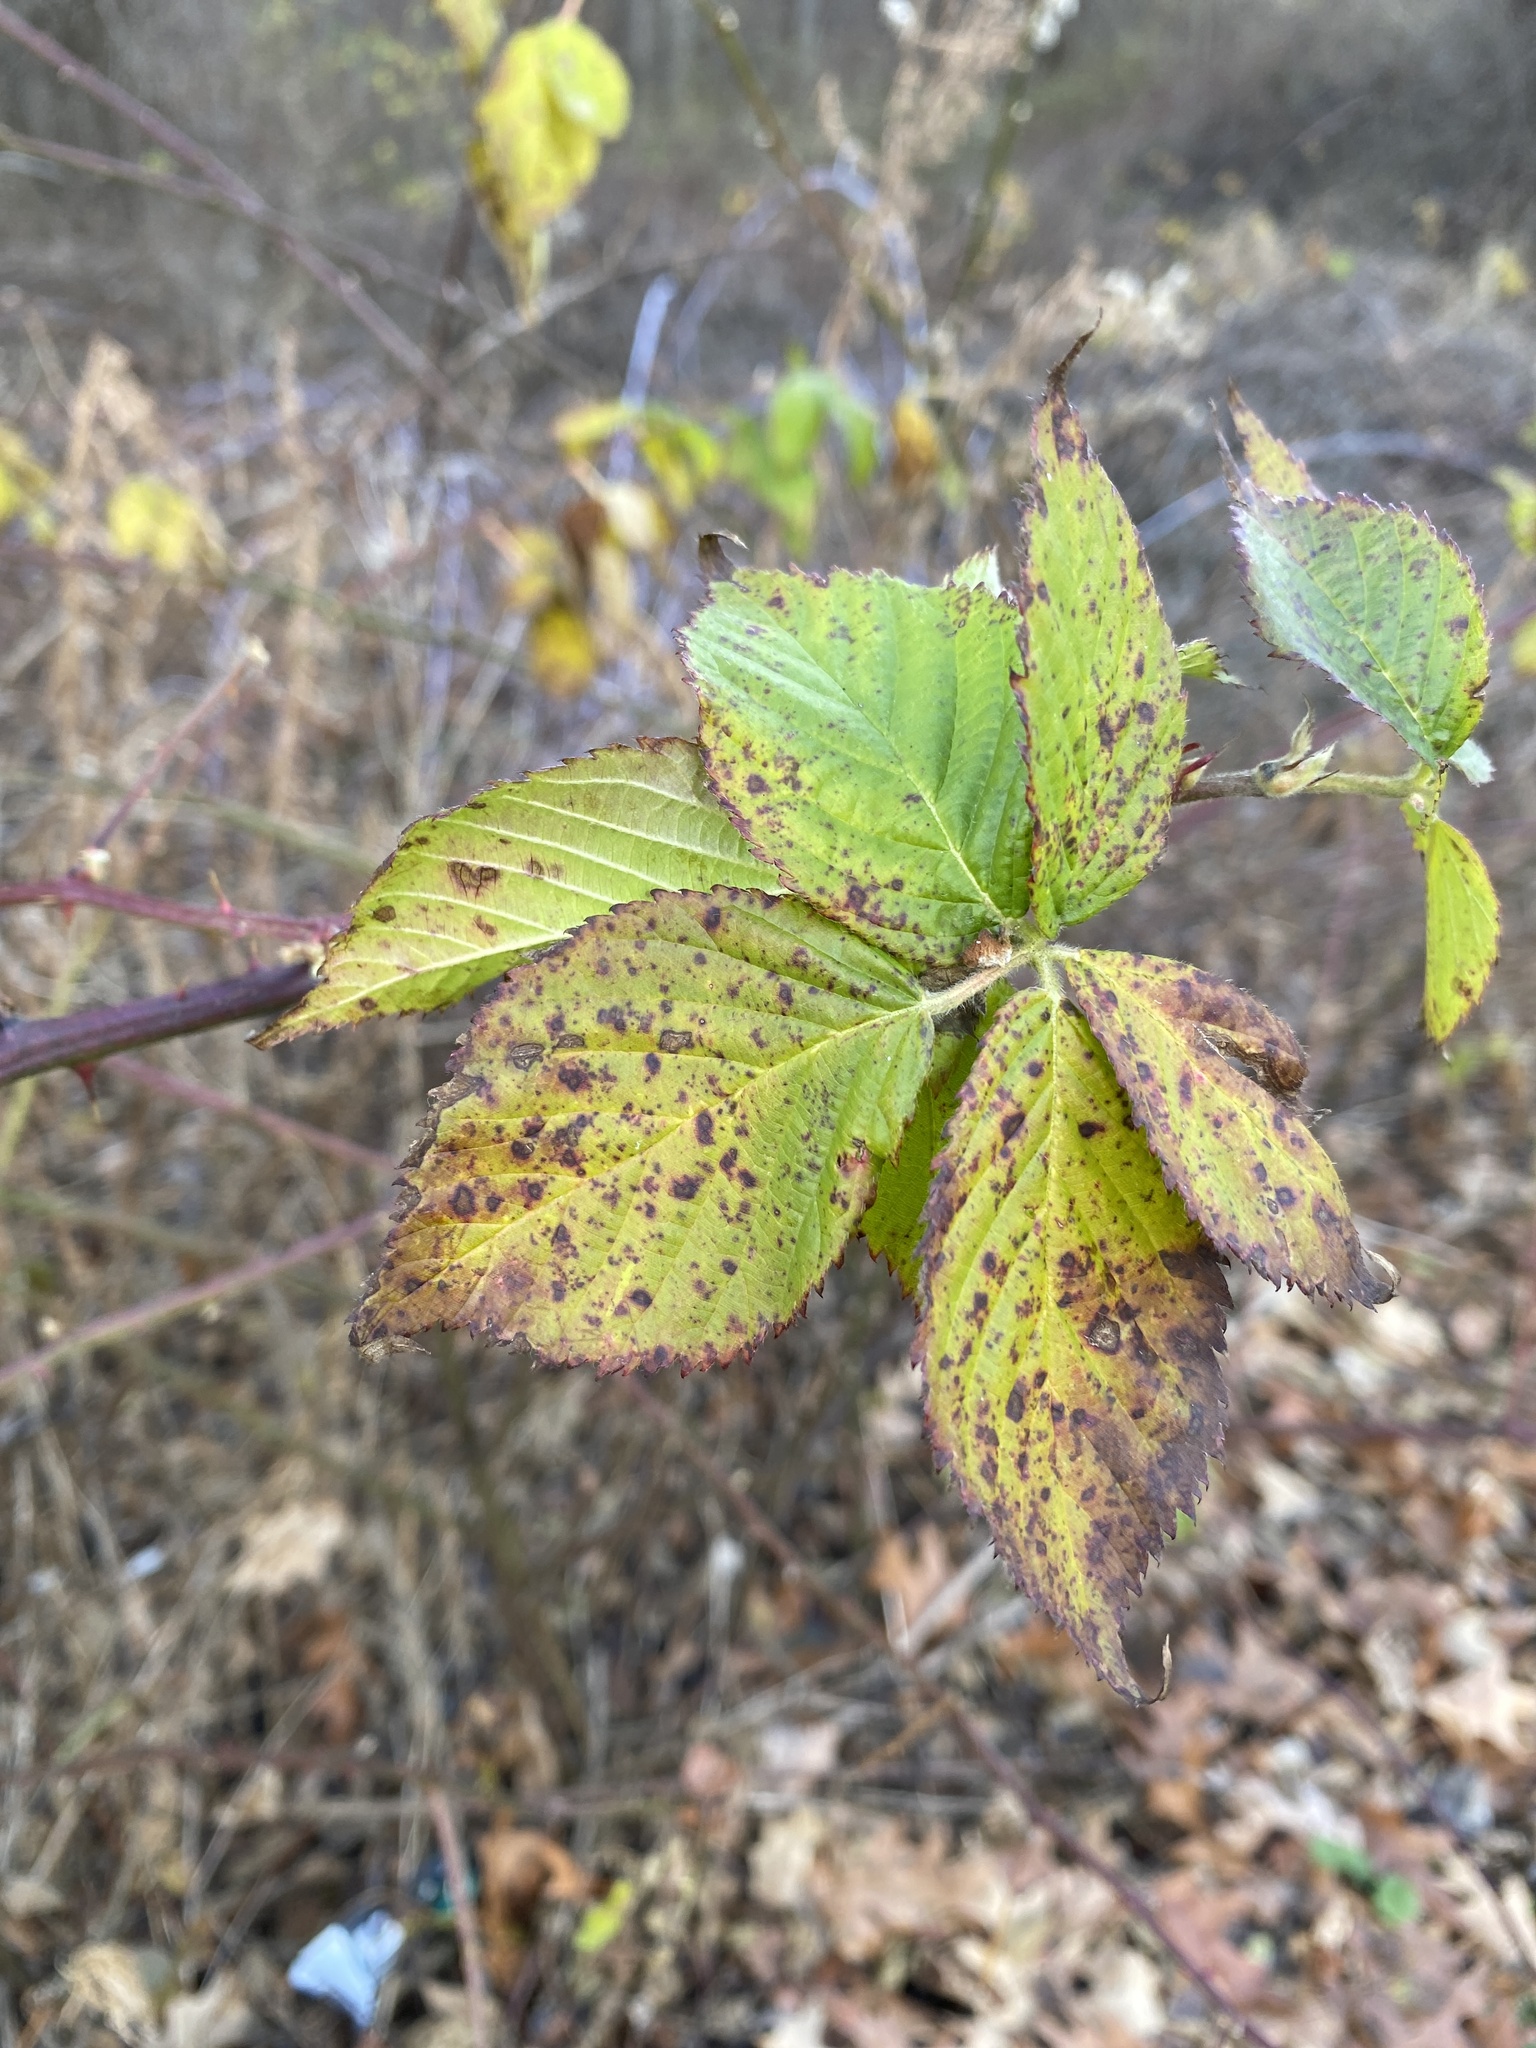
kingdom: Plantae
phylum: Tracheophyta
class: Magnoliopsida
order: Rosales
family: Rosaceae
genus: Rubus
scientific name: Rubus allegheniensis
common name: Allegheny blackberry
